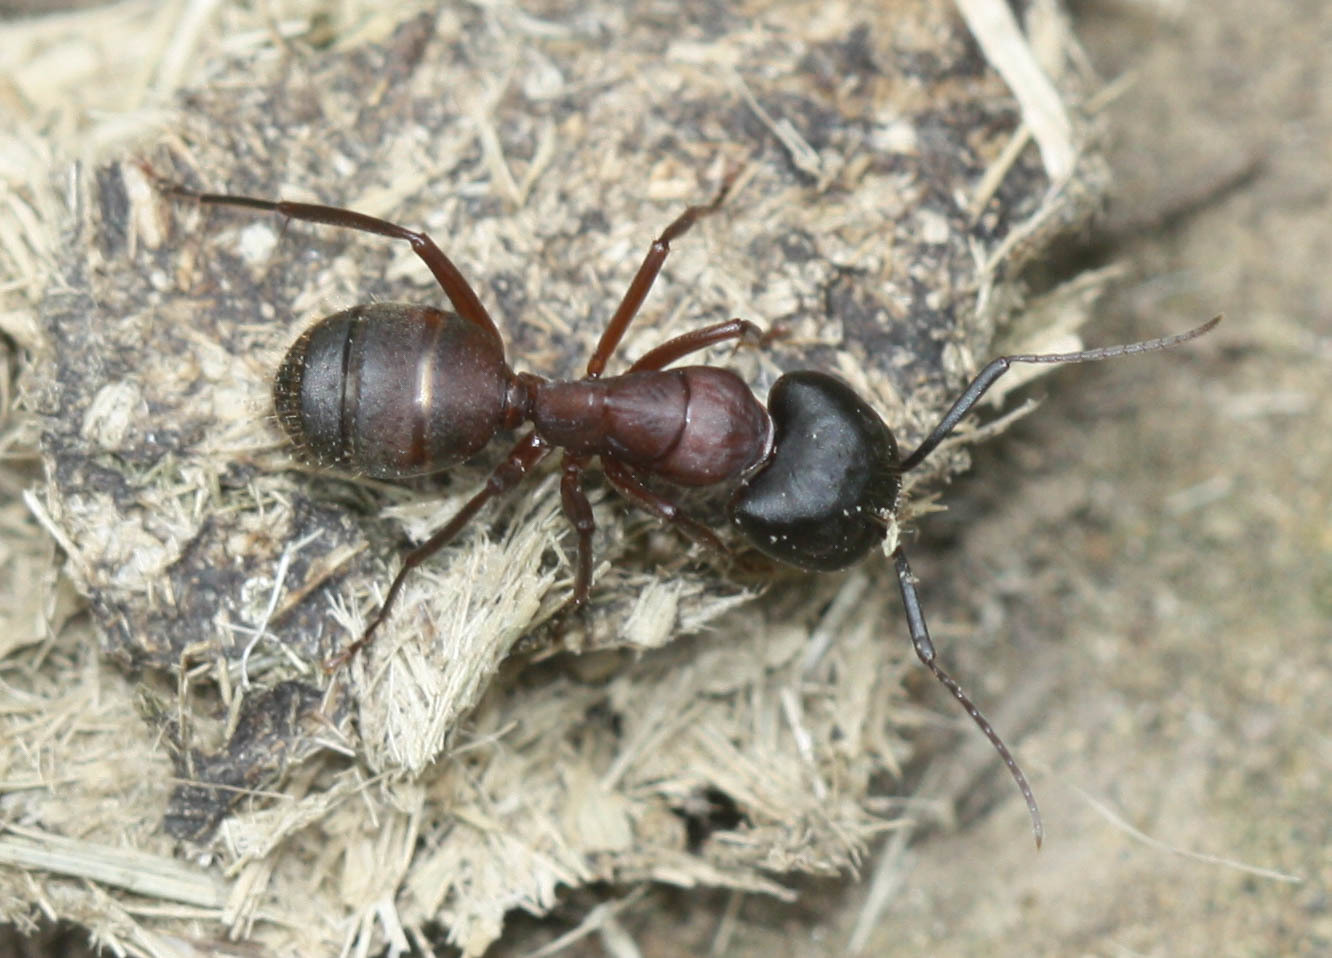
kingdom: Animalia
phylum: Arthropoda
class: Insecta
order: Hymenoptera
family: Formicidae
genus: Camponotus
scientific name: Camponotus vicinus
